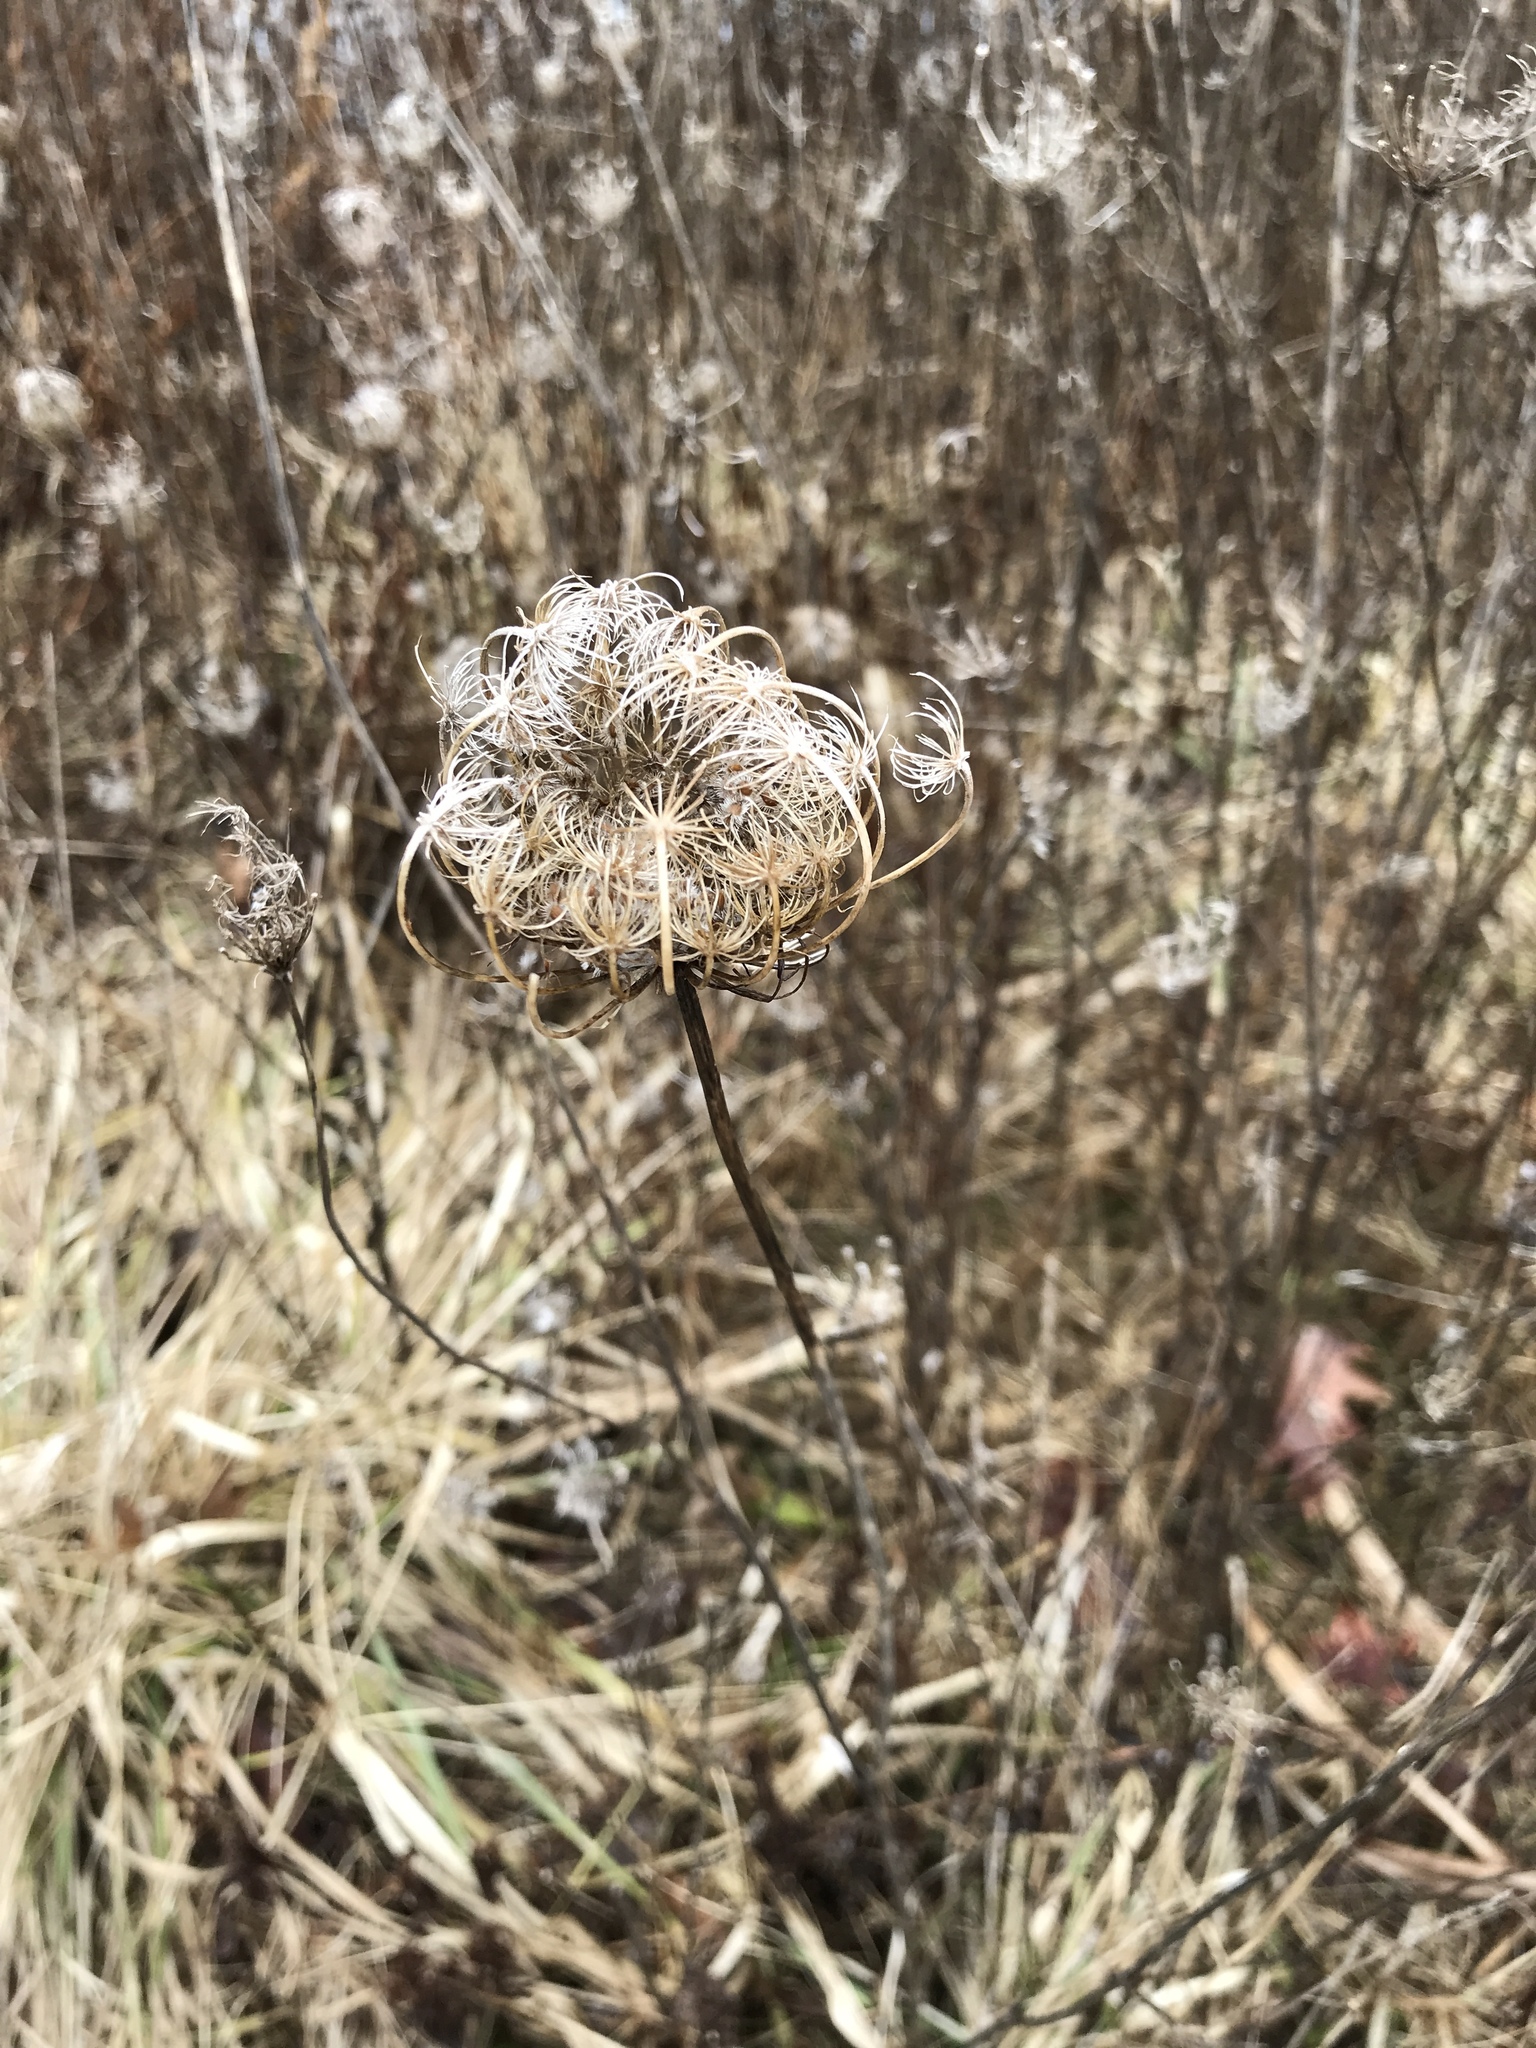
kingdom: Plantae
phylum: Tracheophyta
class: Magnoliopsida
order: Apiales
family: Apiaceae
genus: Daucus
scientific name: Daucus carota
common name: Wild carrot
